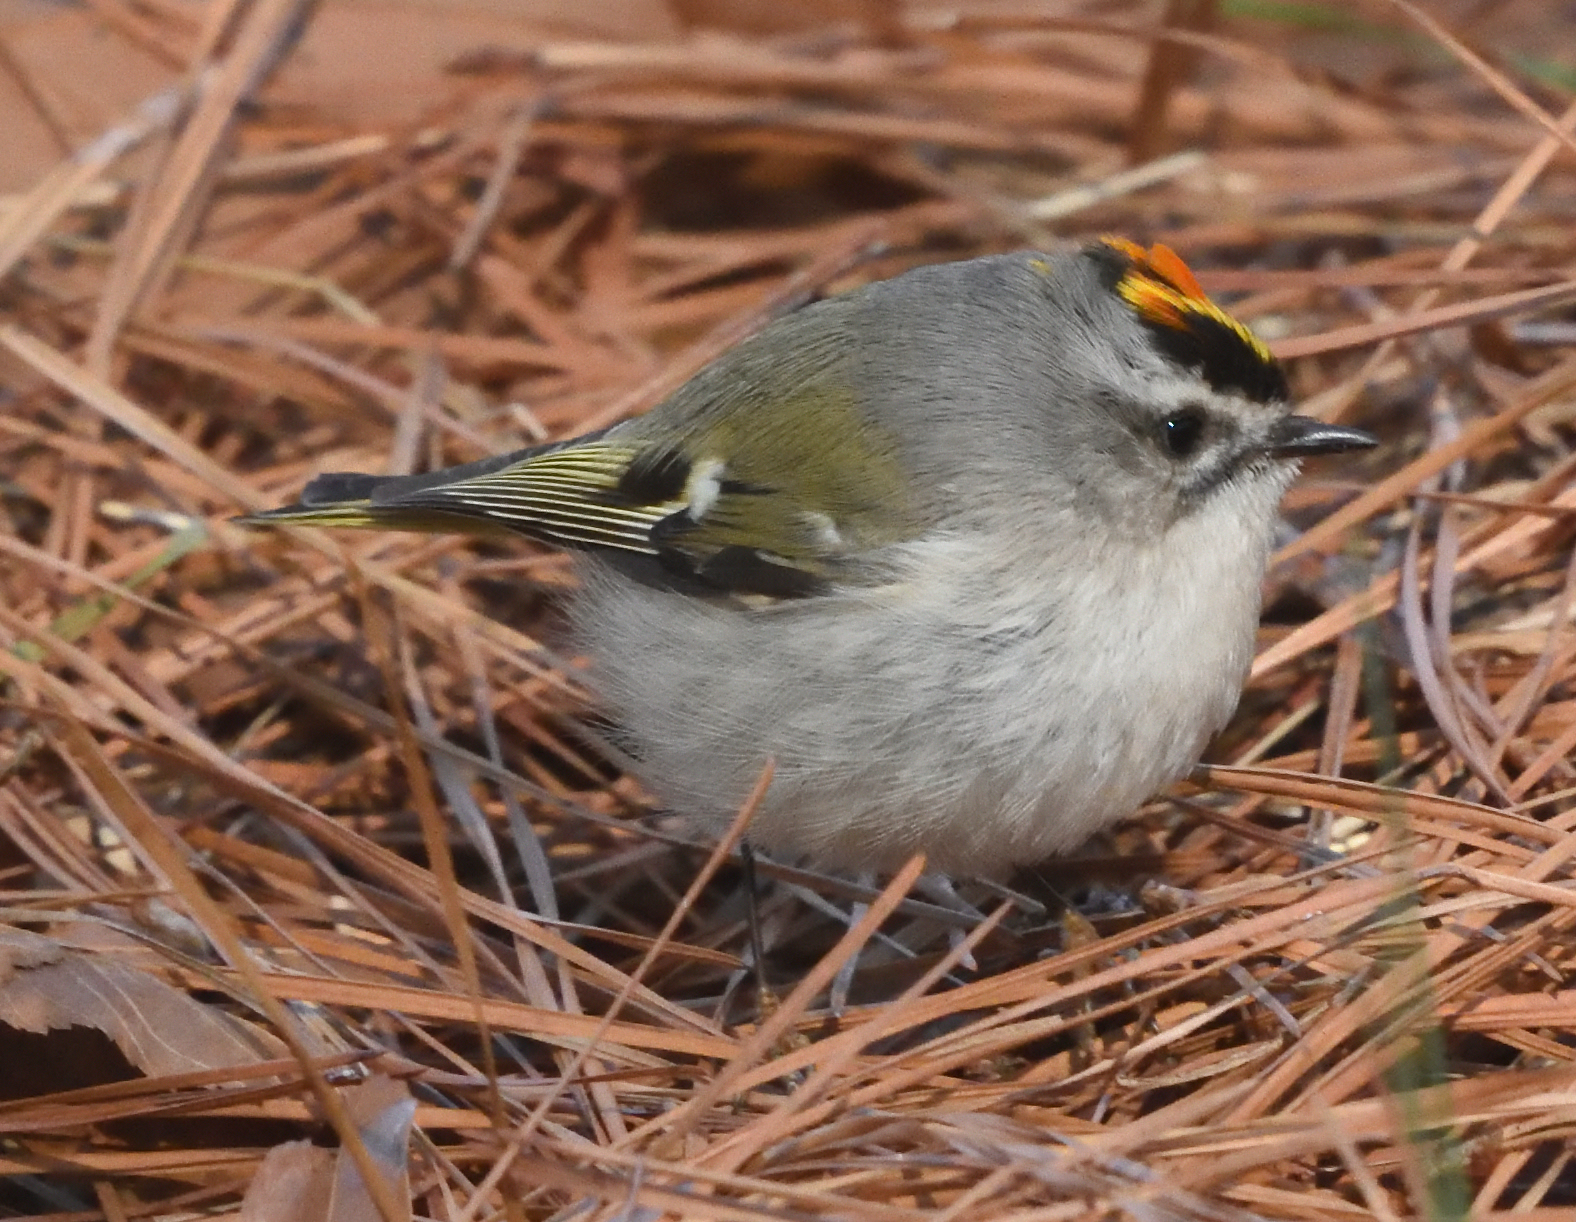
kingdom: Animalia
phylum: Chordata
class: Aves
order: Passeriformes
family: Regulidae
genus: Regulus
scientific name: Regulus satrapa
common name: Golden-crowned kinglet
